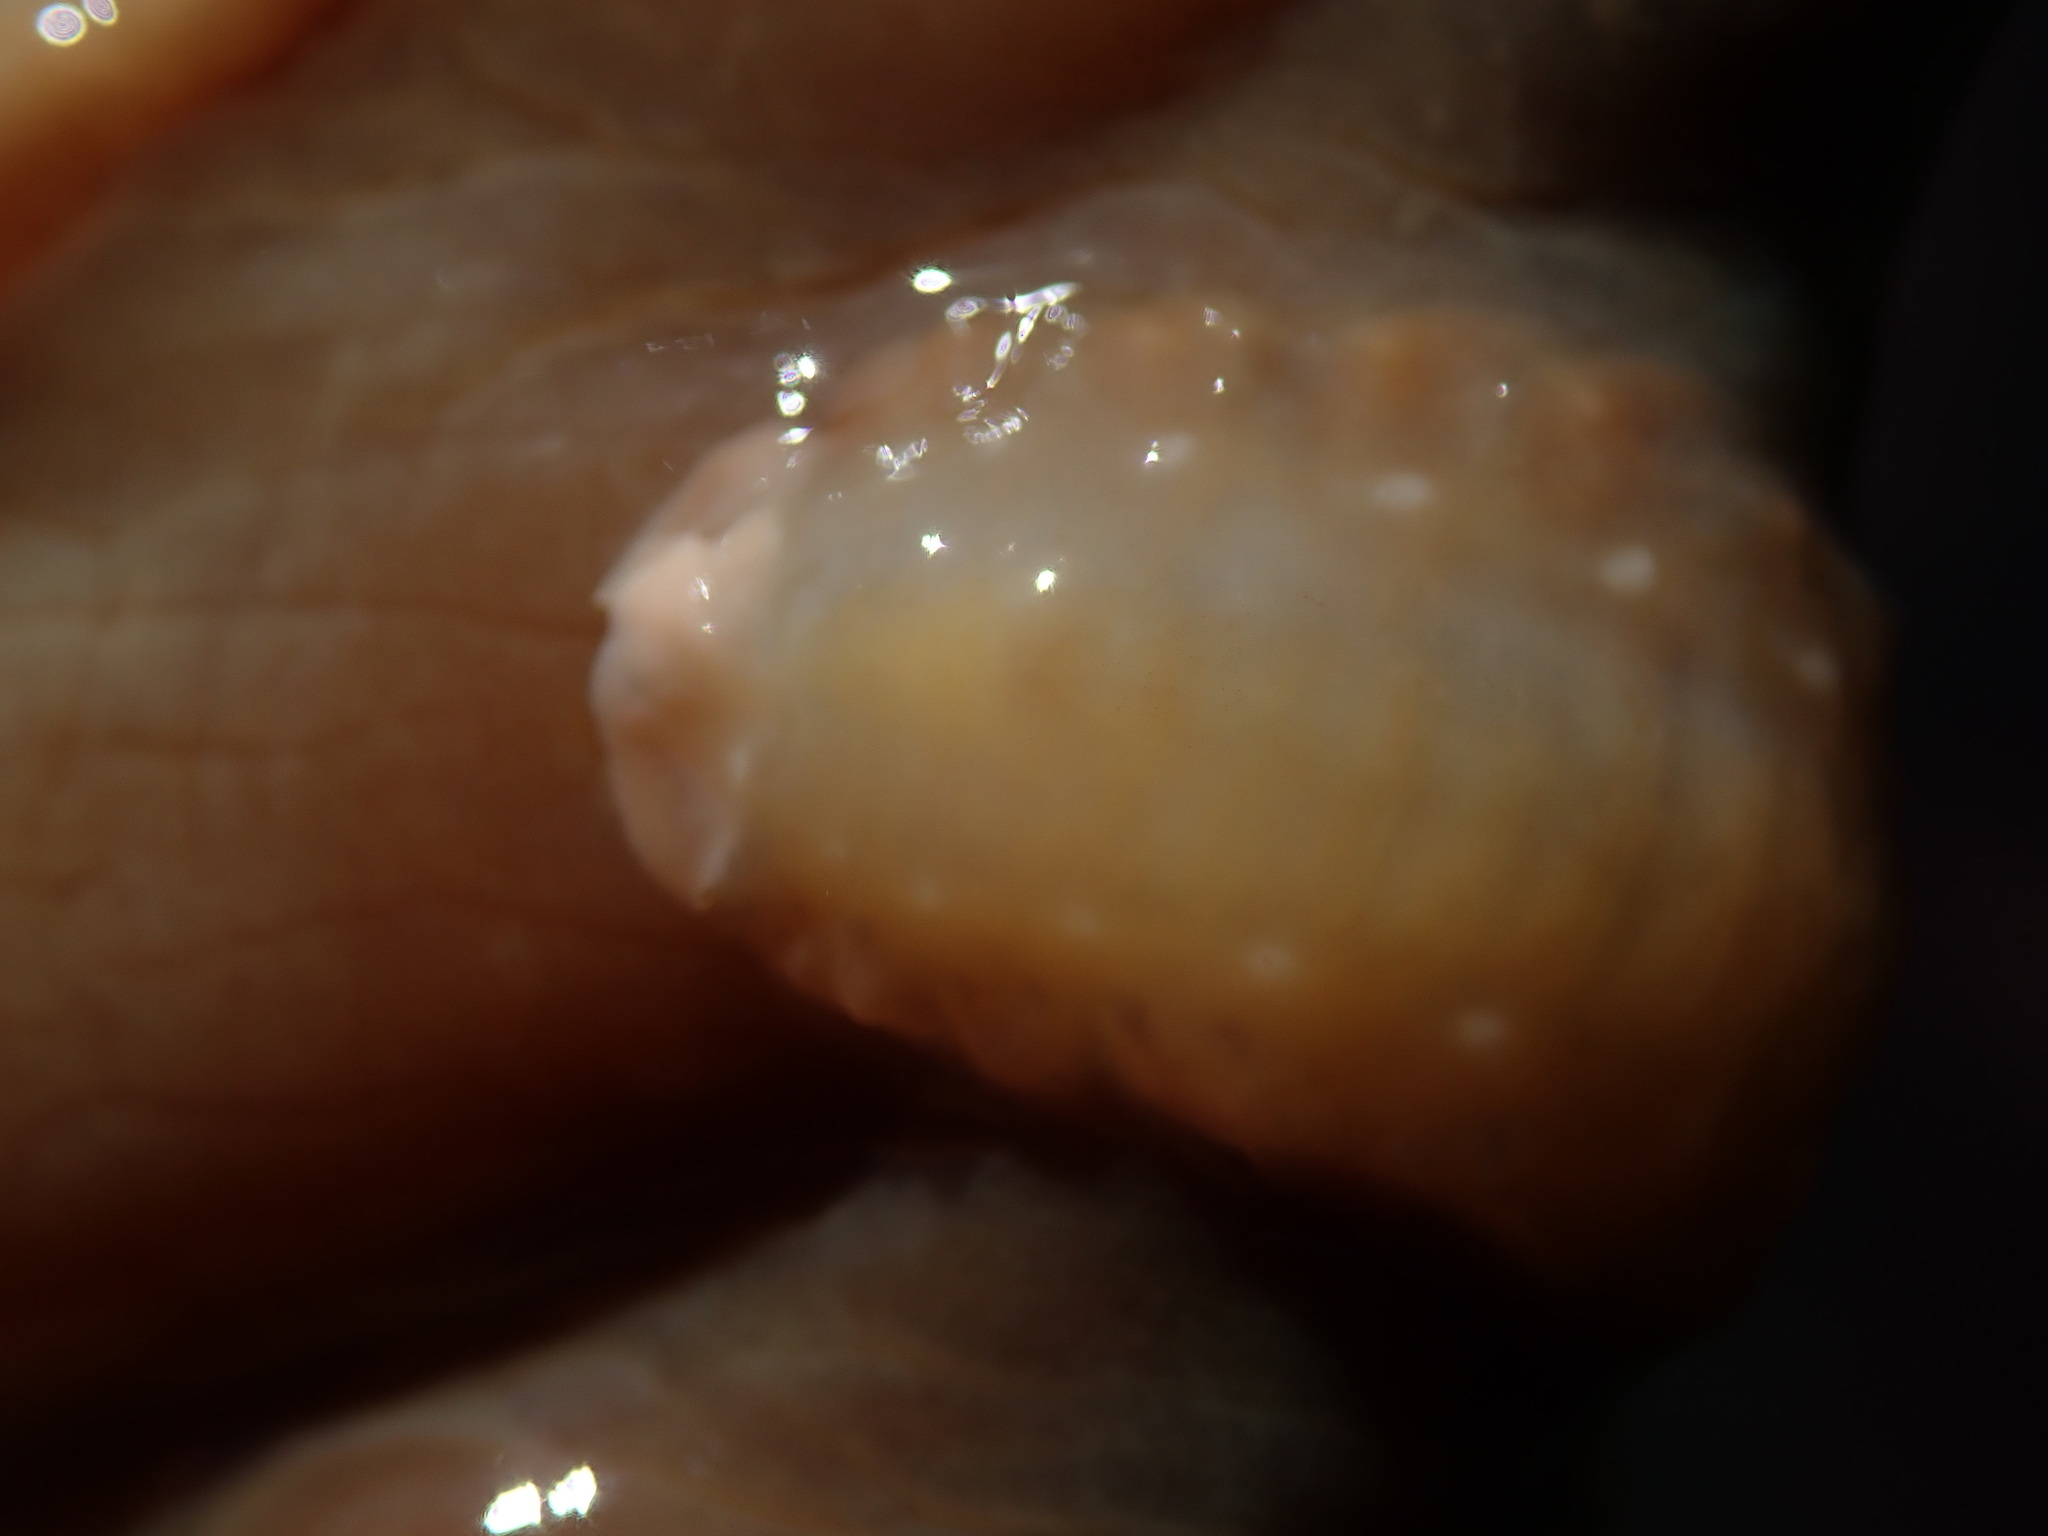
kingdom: Animalia
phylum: Annelida
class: Polychaeta
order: Phyllodocida
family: Polynoidae
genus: Arctonoe
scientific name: Arctonoe vittata
